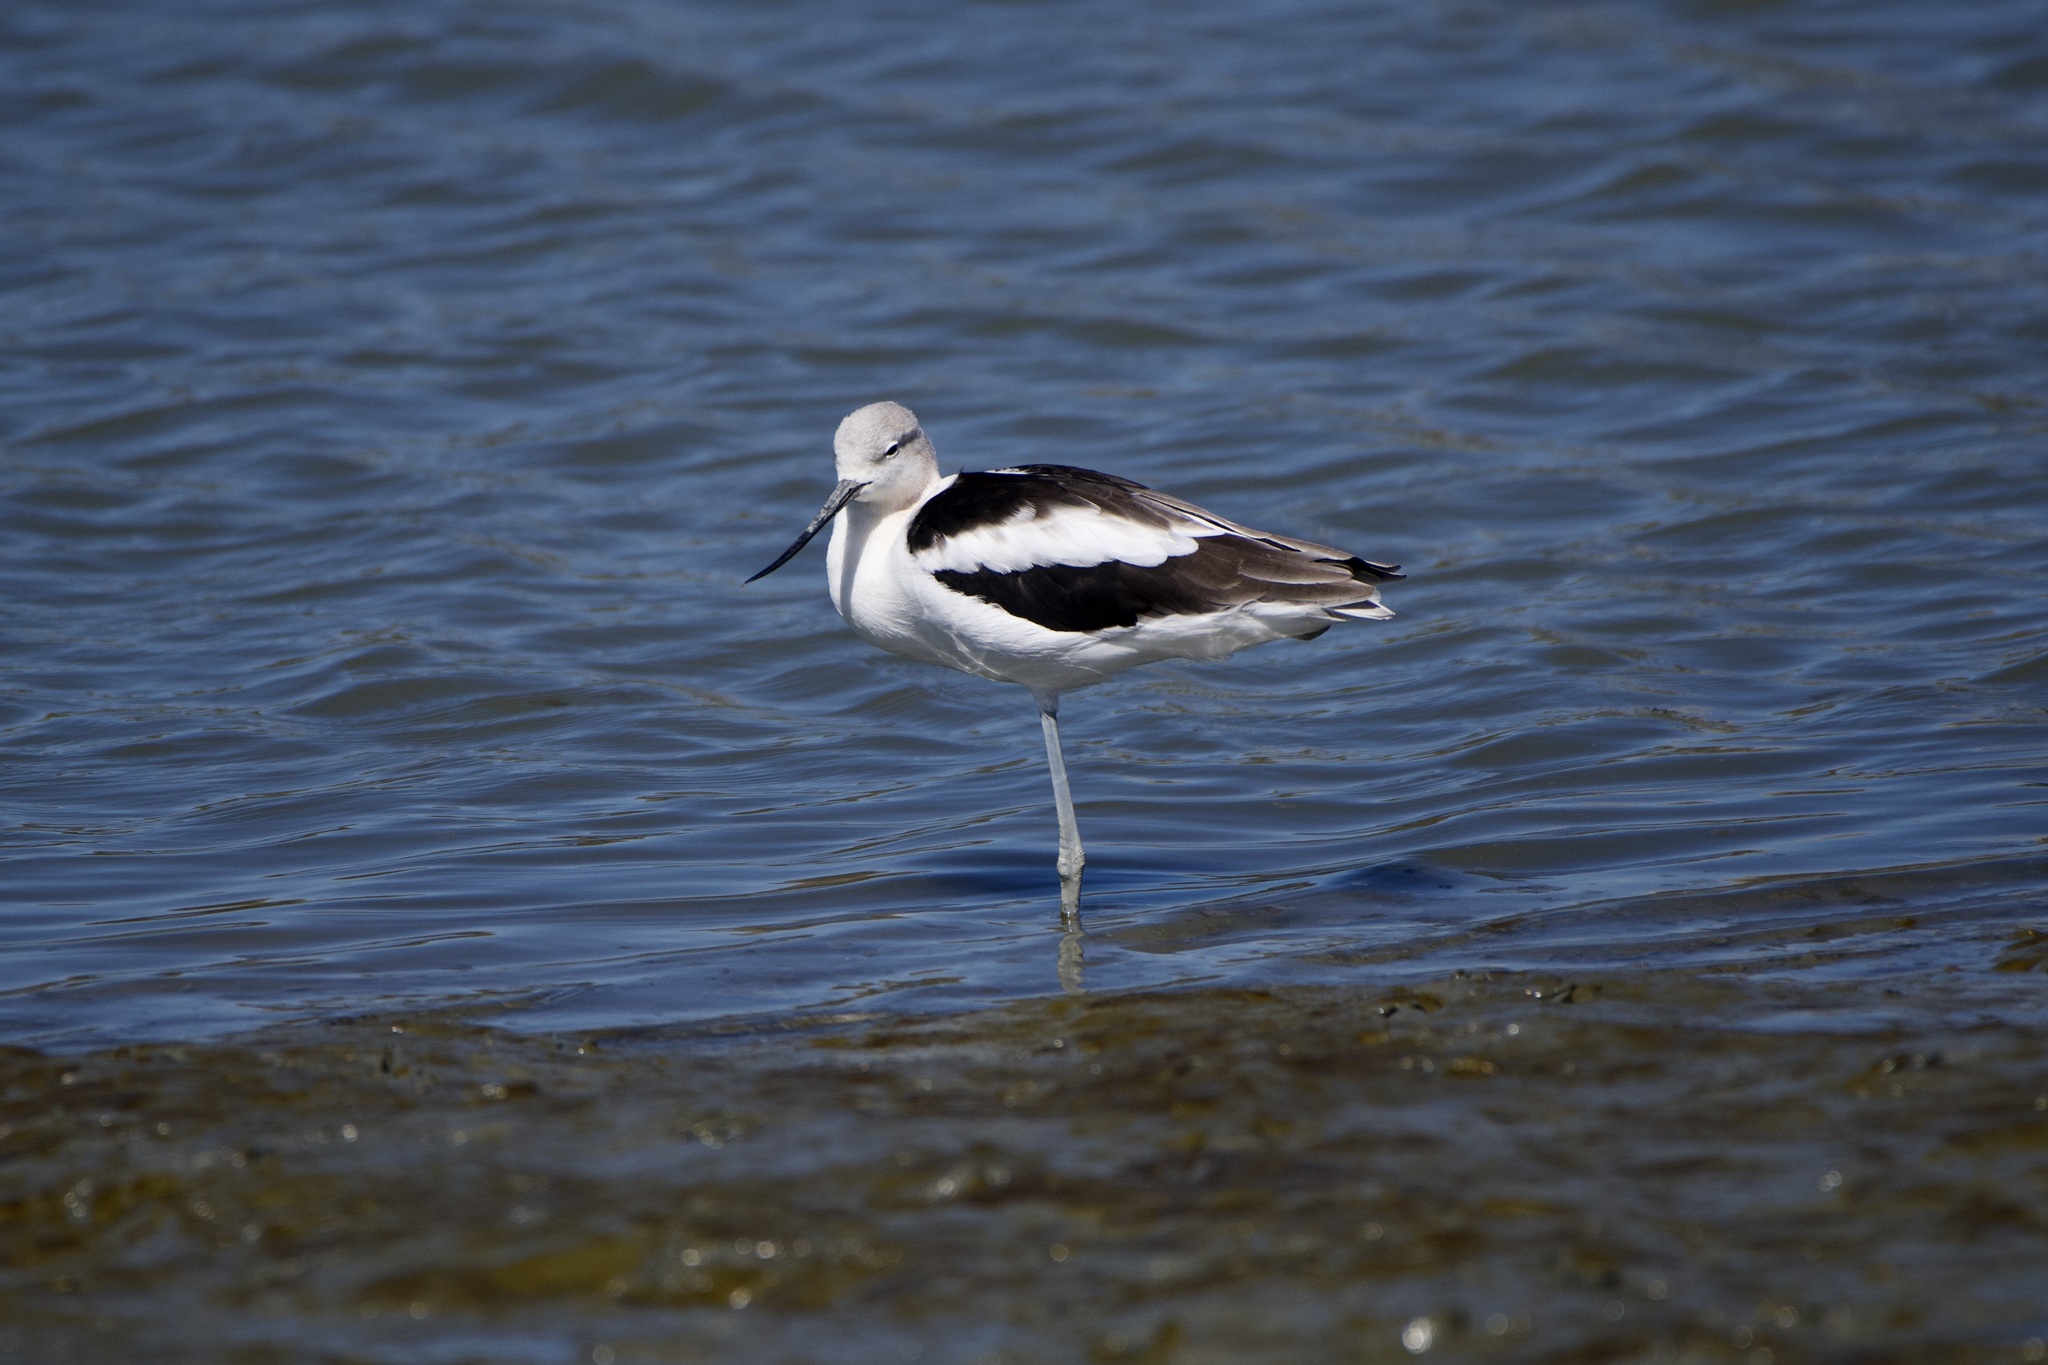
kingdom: Animalia
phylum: Chordata
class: Aves
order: Charadriiformes
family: Recurvirostridae
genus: Recurvirostra
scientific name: Recurvirostra americana
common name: American avocet
